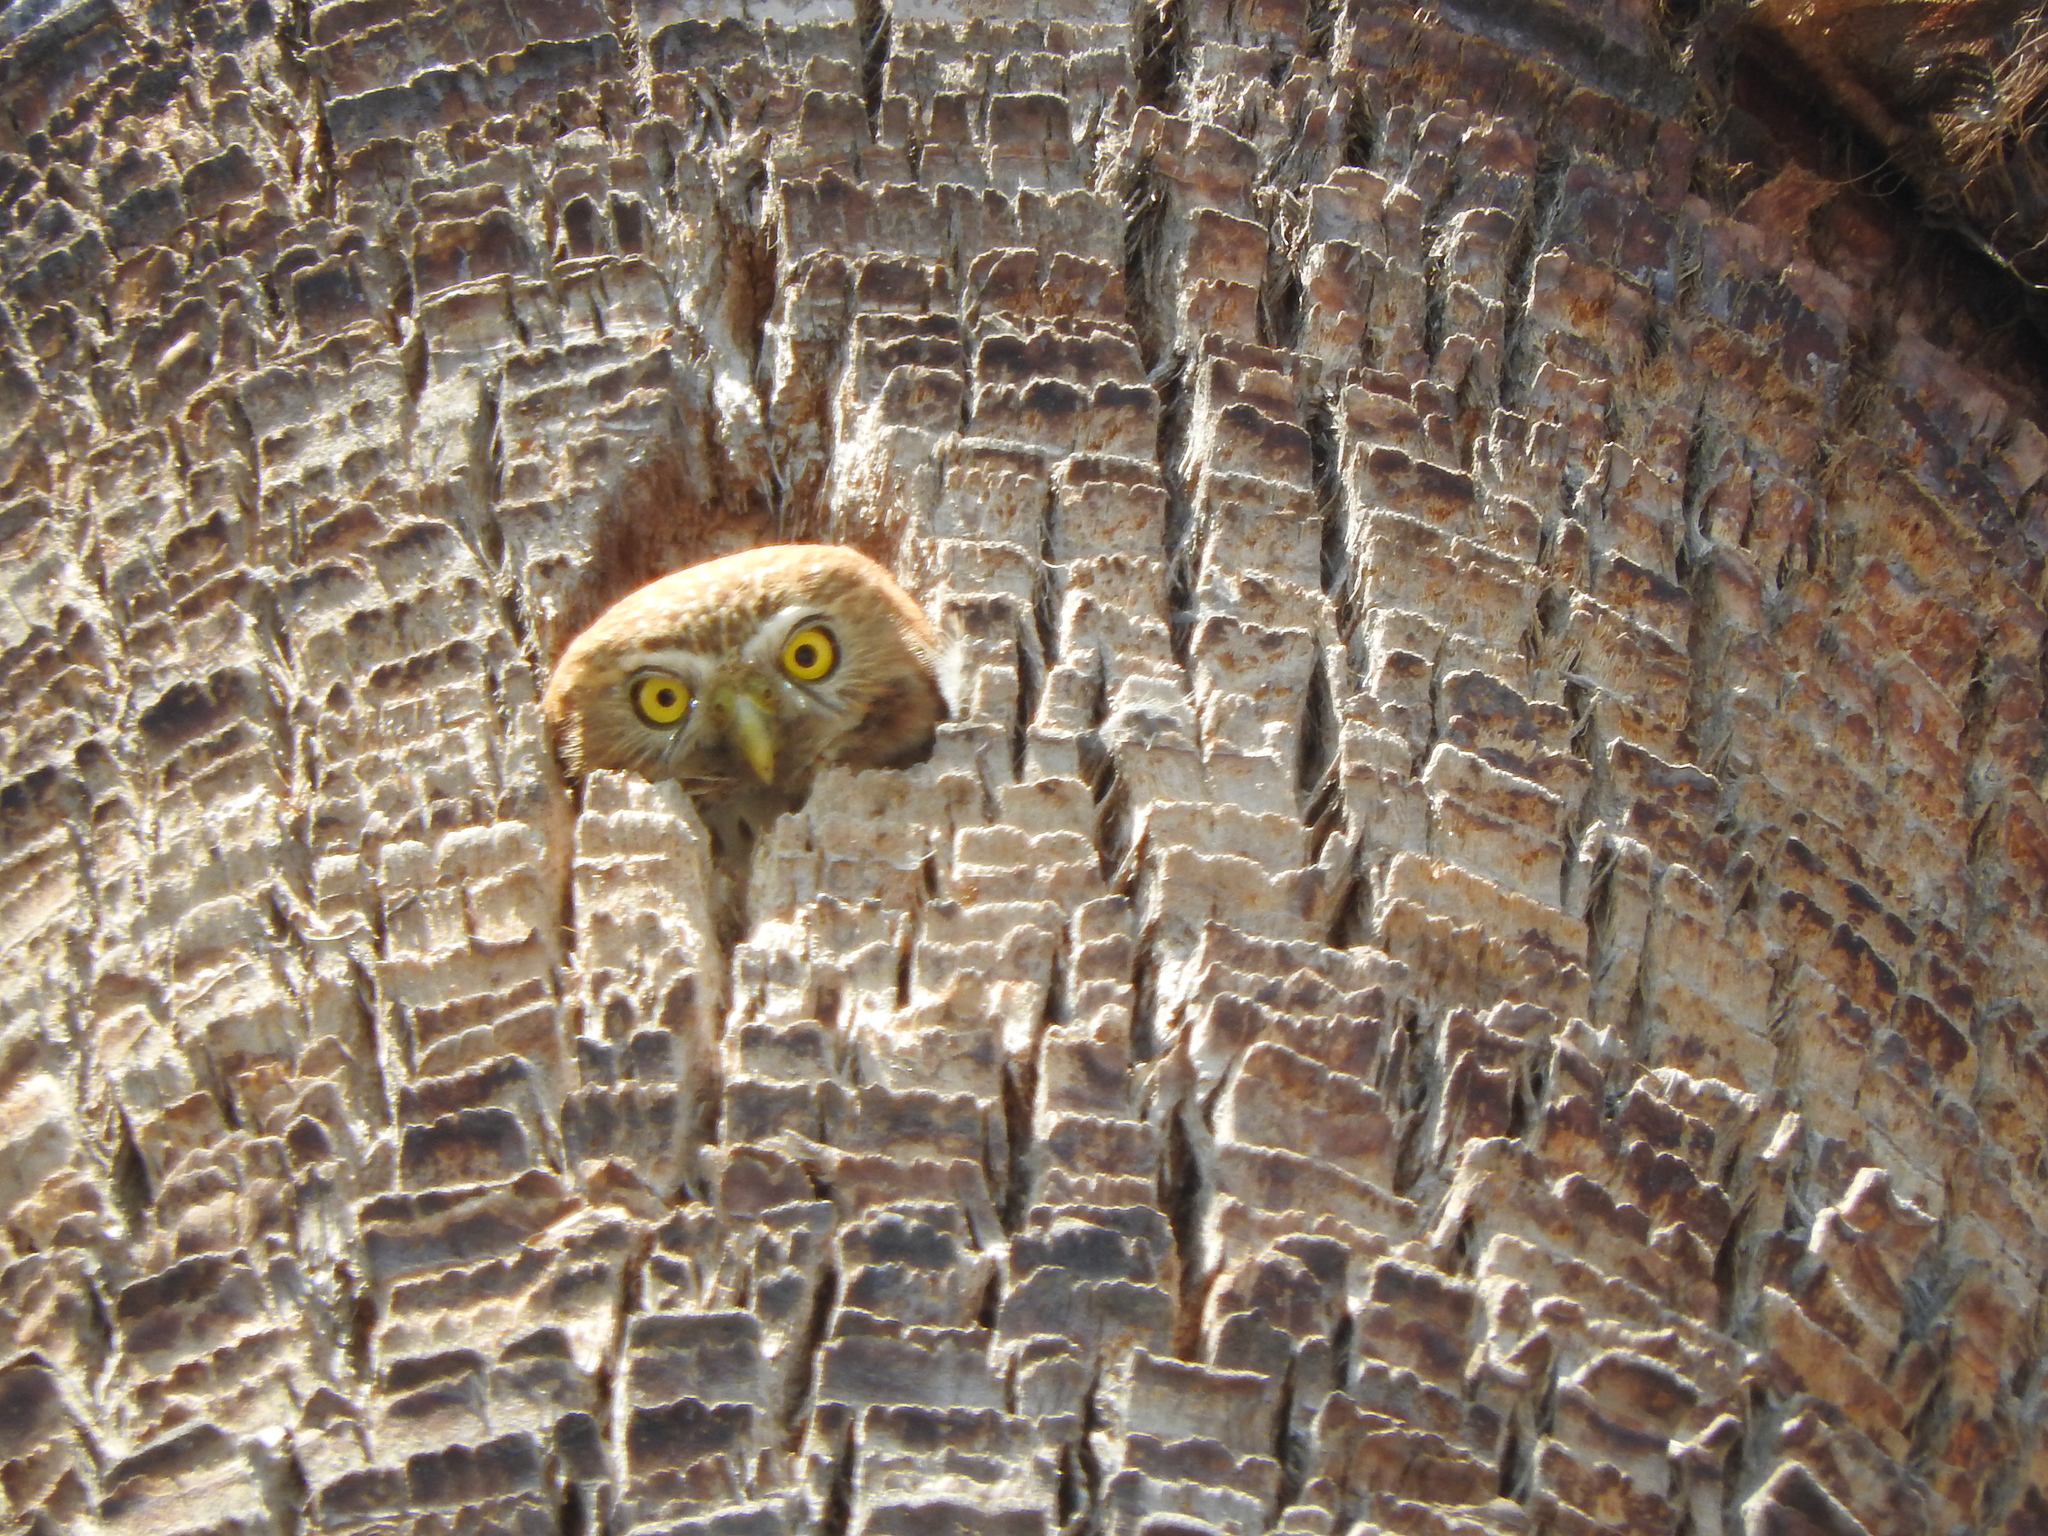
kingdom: Animalia
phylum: Chordata
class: Aves
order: Strigiformes
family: Strigidae
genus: Glaucidium
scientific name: Glaucidium brasilianum
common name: Ferruginous pygmy-owl
